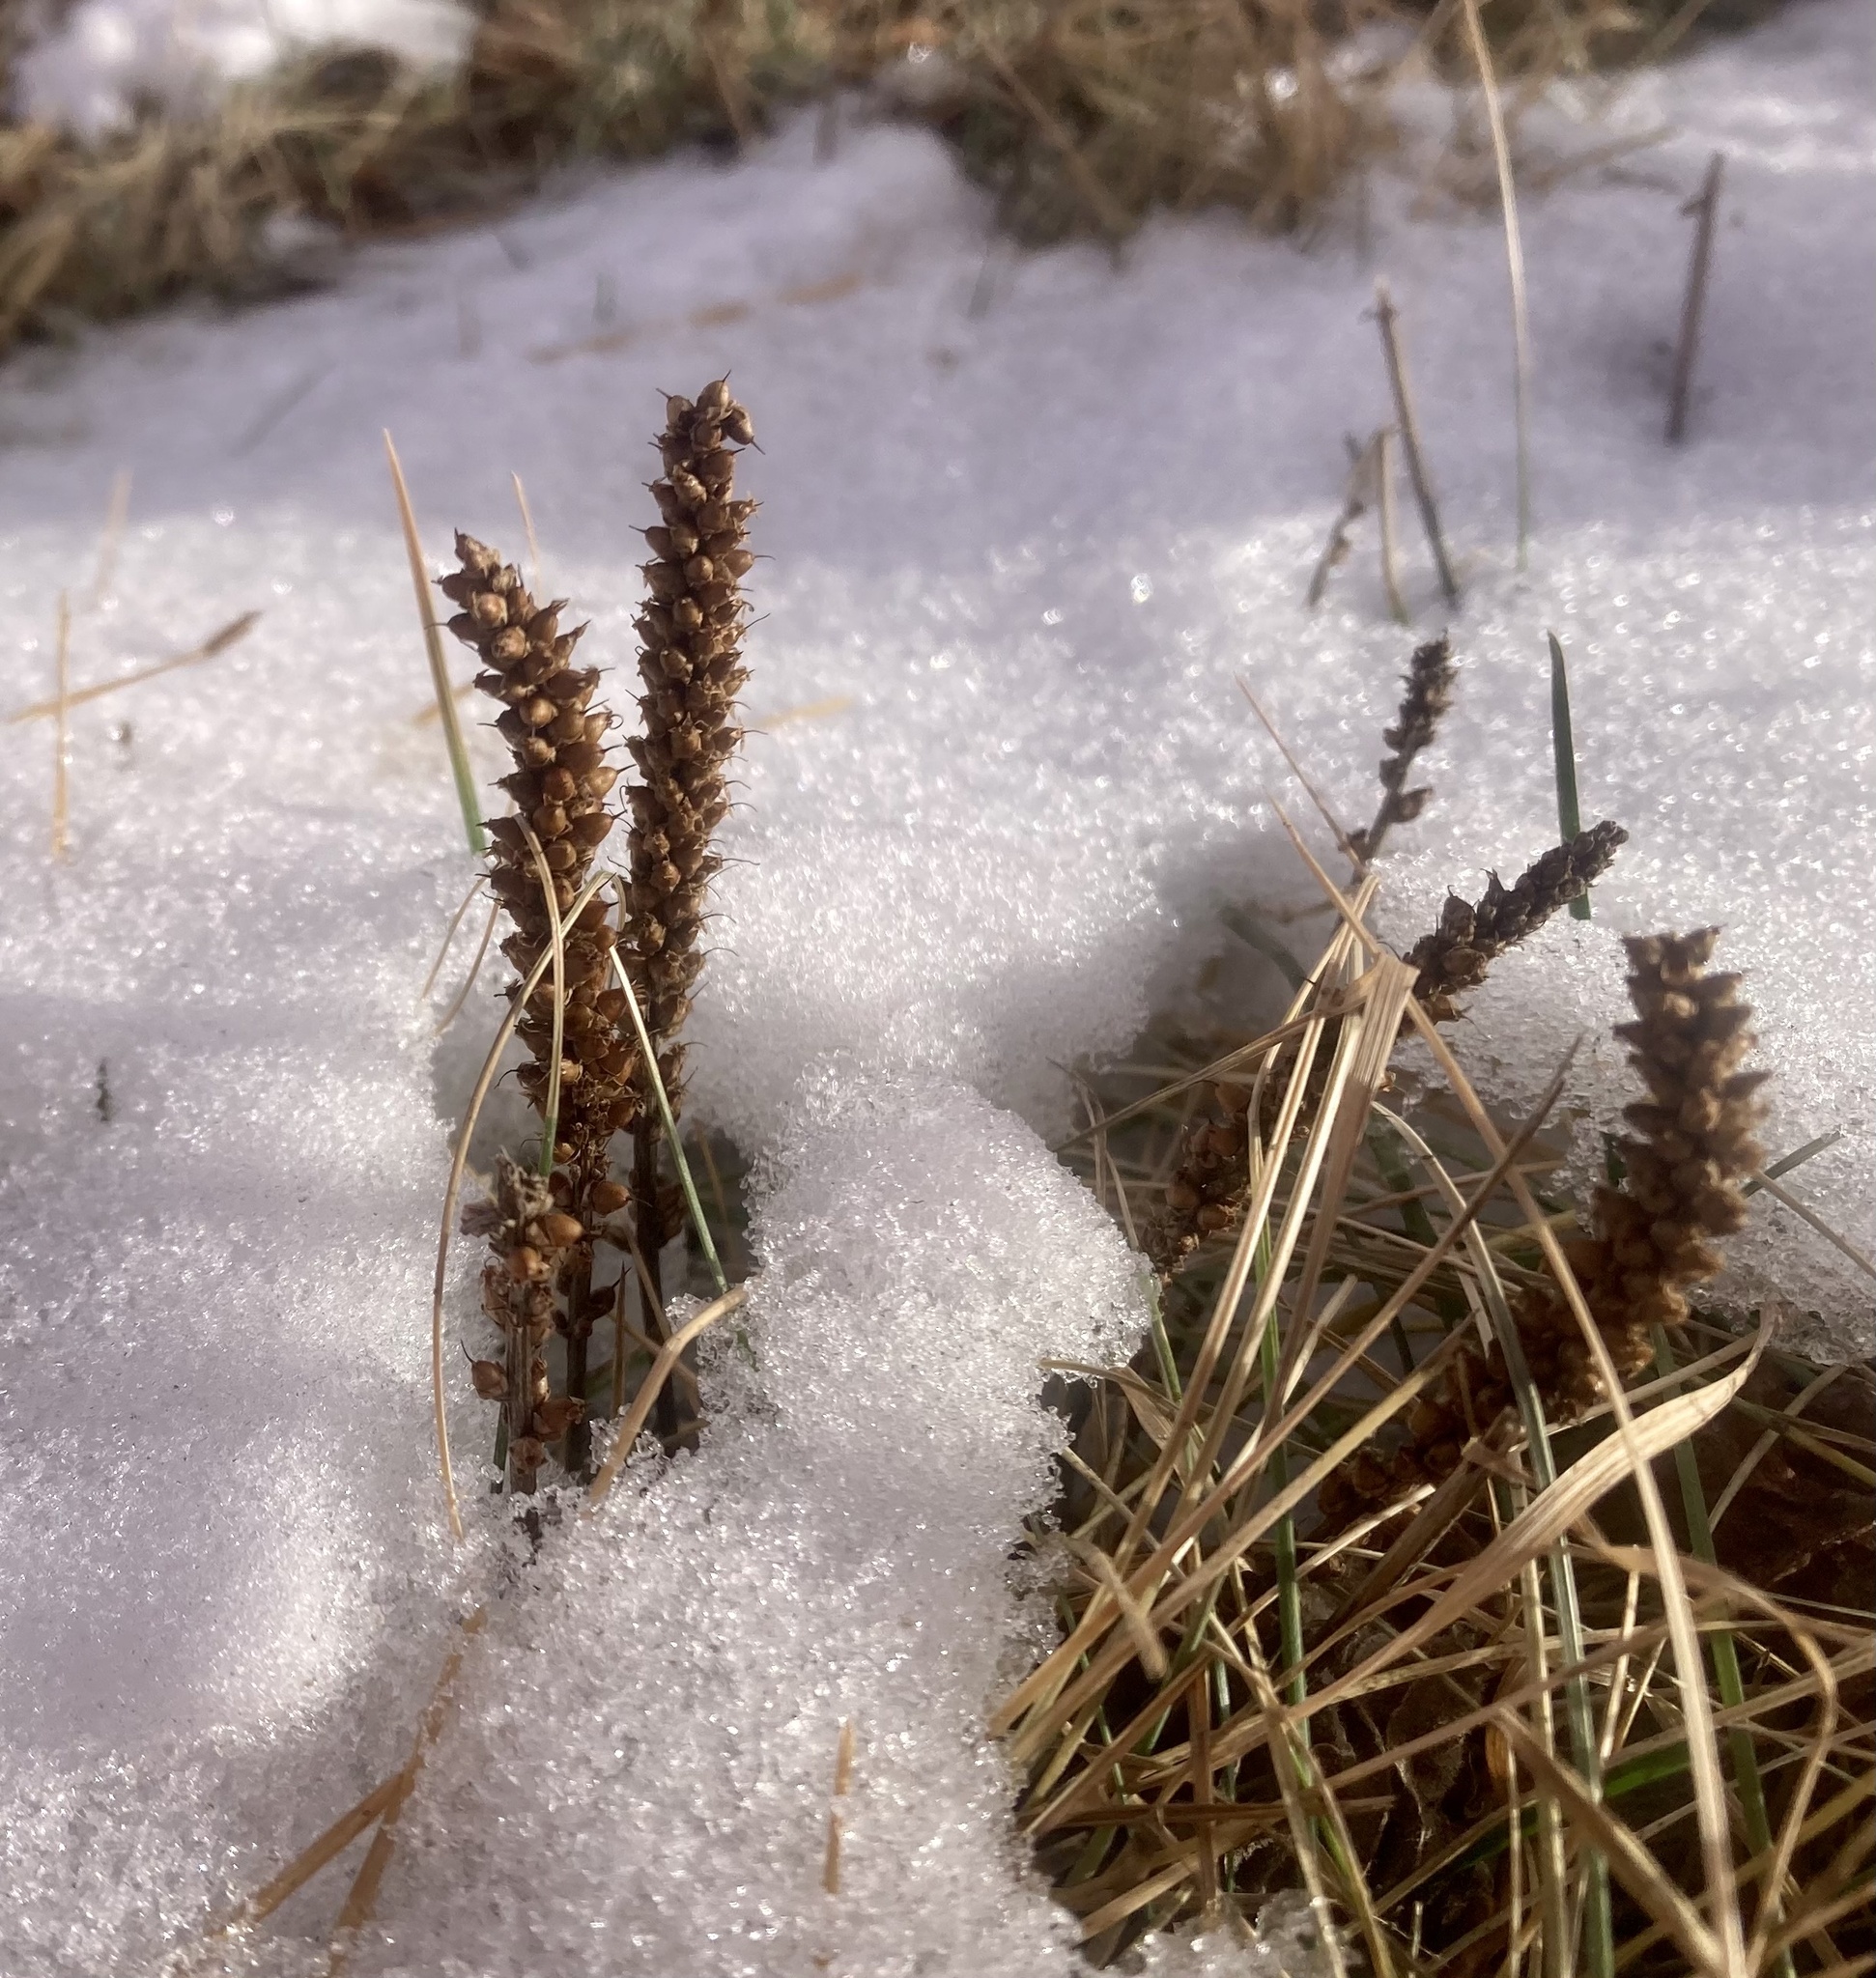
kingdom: Plantae
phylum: Tracheophyta
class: Magnoliopsida
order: Lamiales
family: Plantaginaceae
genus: Plantago
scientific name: Plantago major
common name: Common plantain
